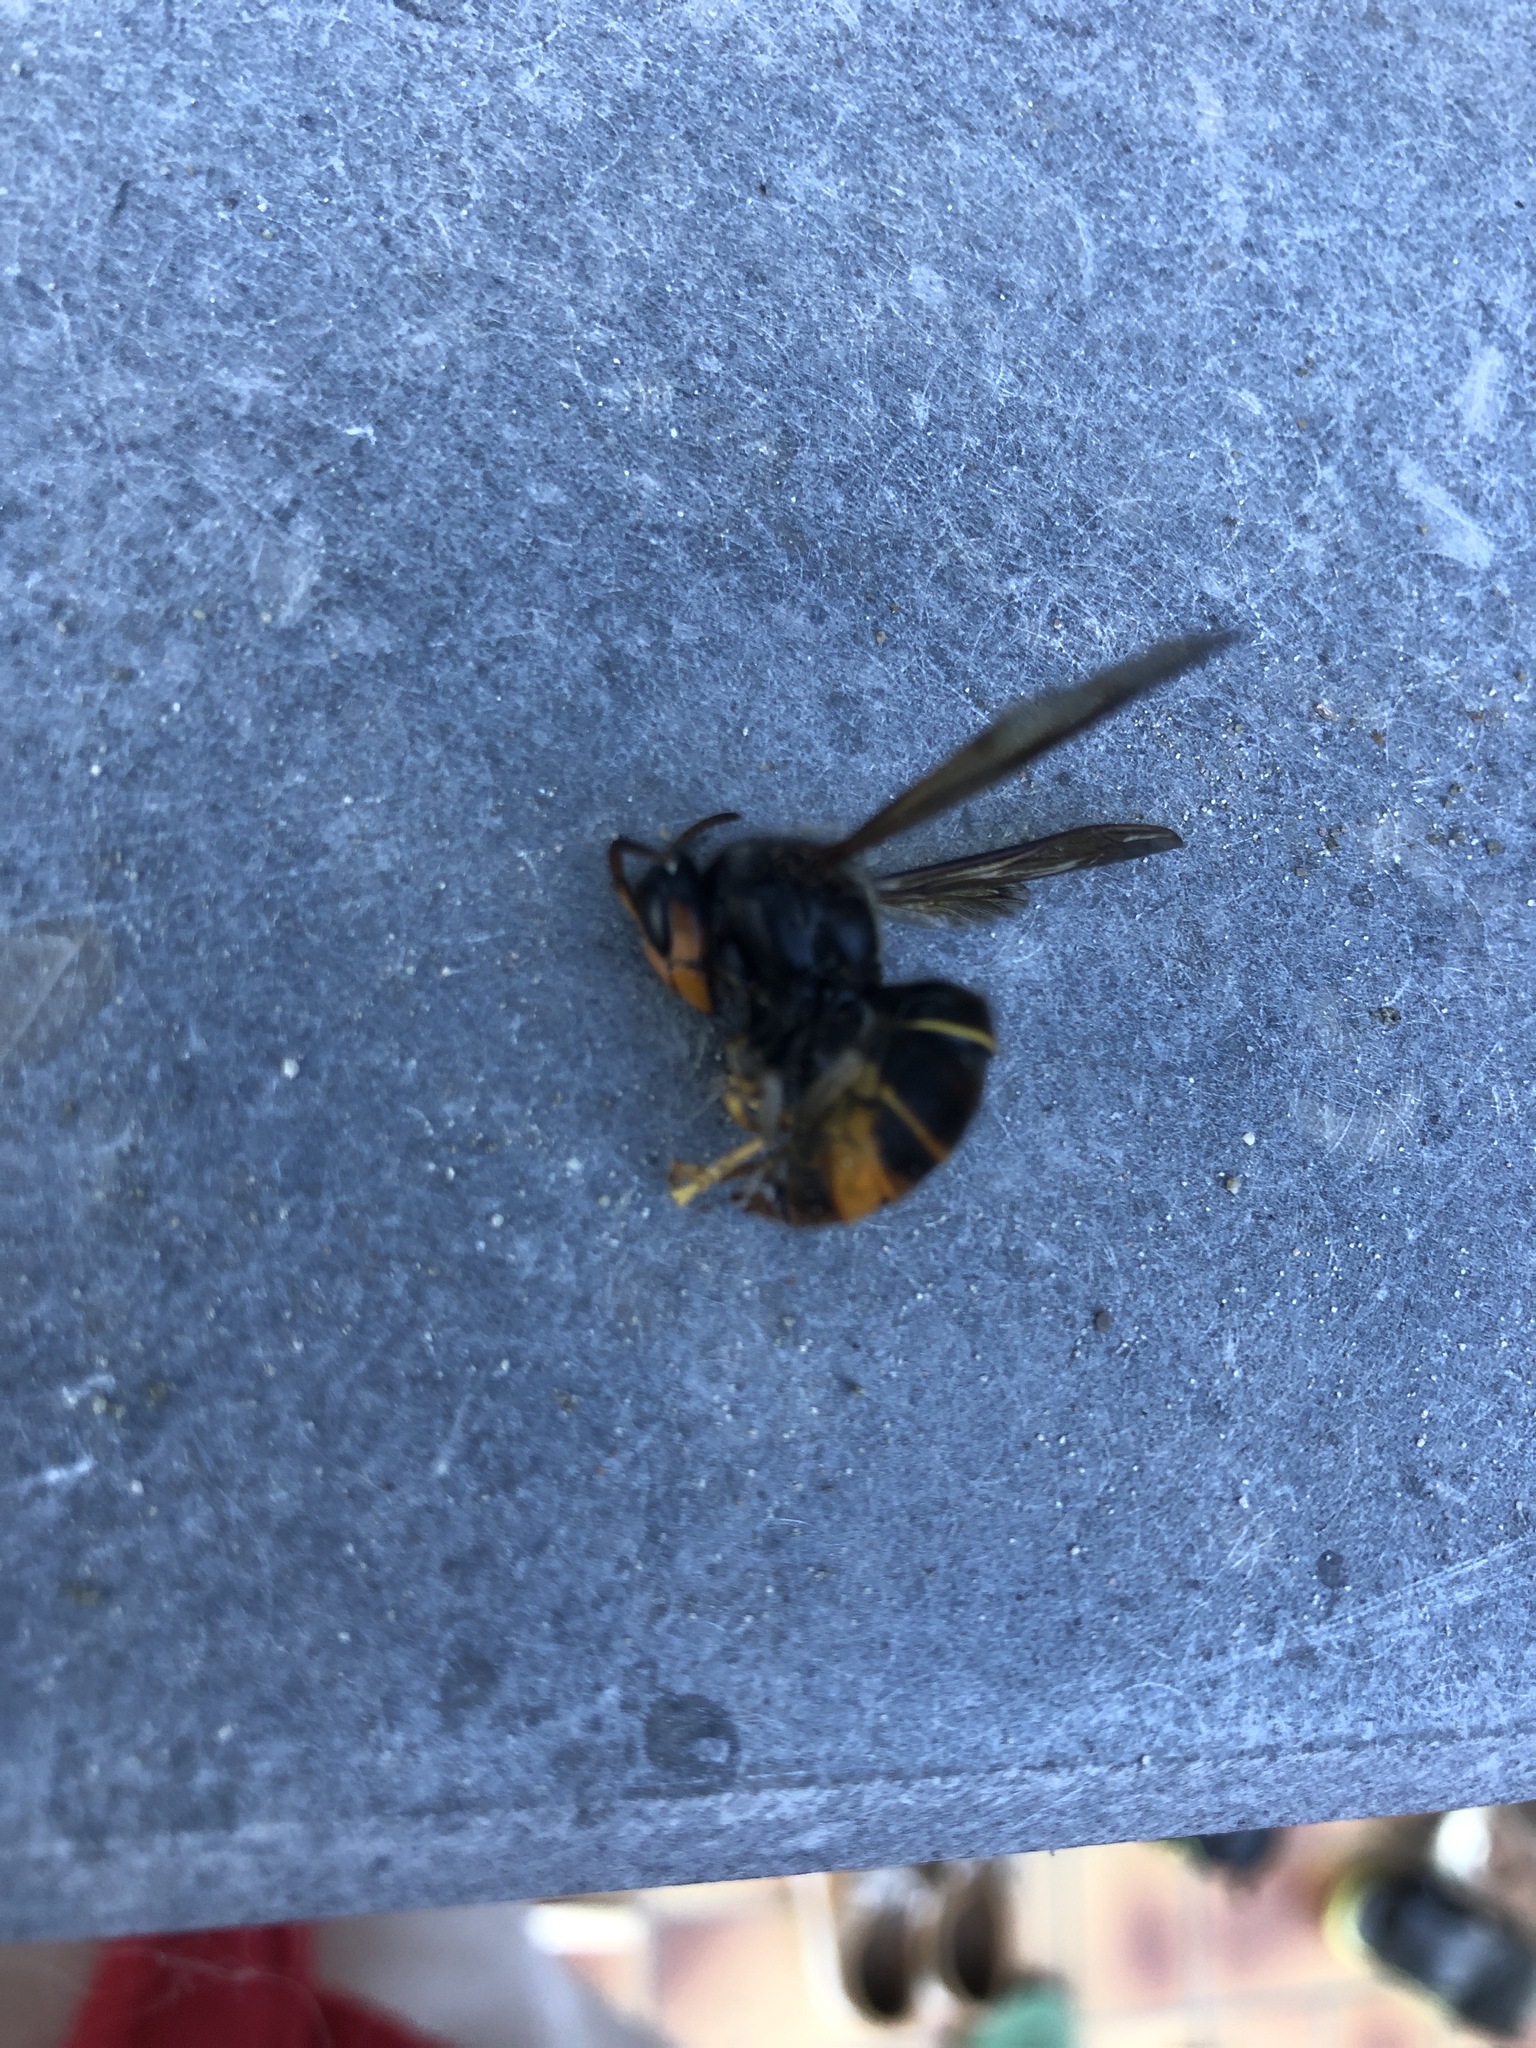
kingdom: Animalia
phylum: Arthropoda
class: Insecta
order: Hymenoptera
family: Vespidae
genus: Vespa
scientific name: Vespa velutina
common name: Asian hornet
